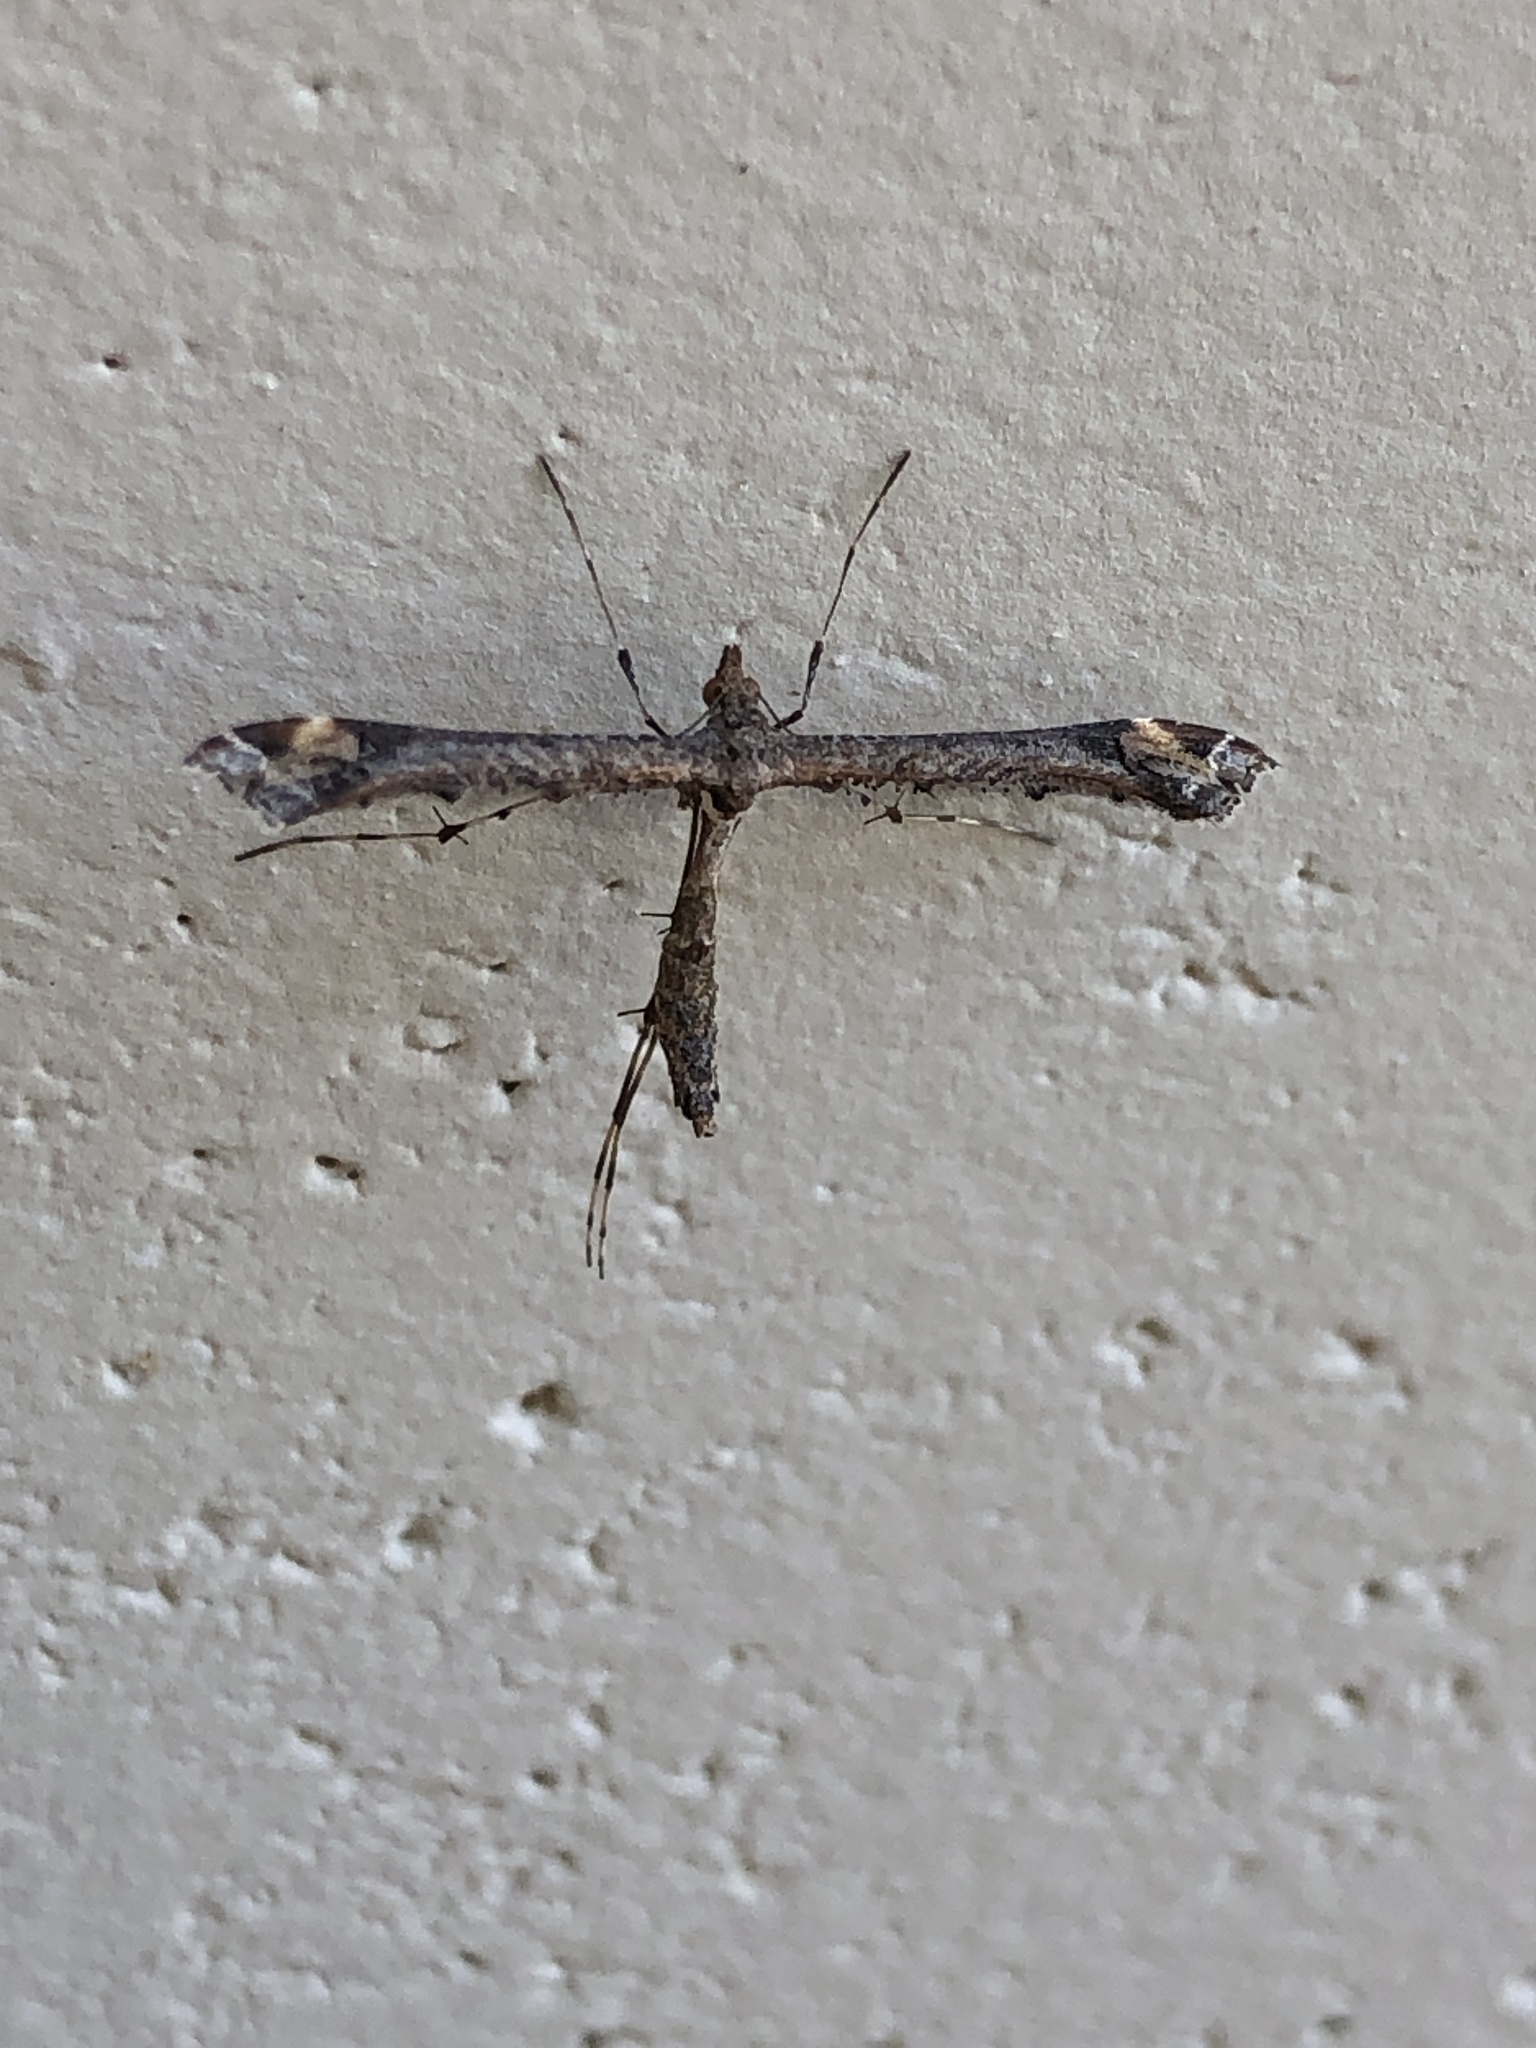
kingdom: Animalia
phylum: Arthropoda
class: Insecta
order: Lepidoptera
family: Pterophoridae
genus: Anstenoptilia
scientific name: Anstenoptilia marmarodactyla
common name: Moth
